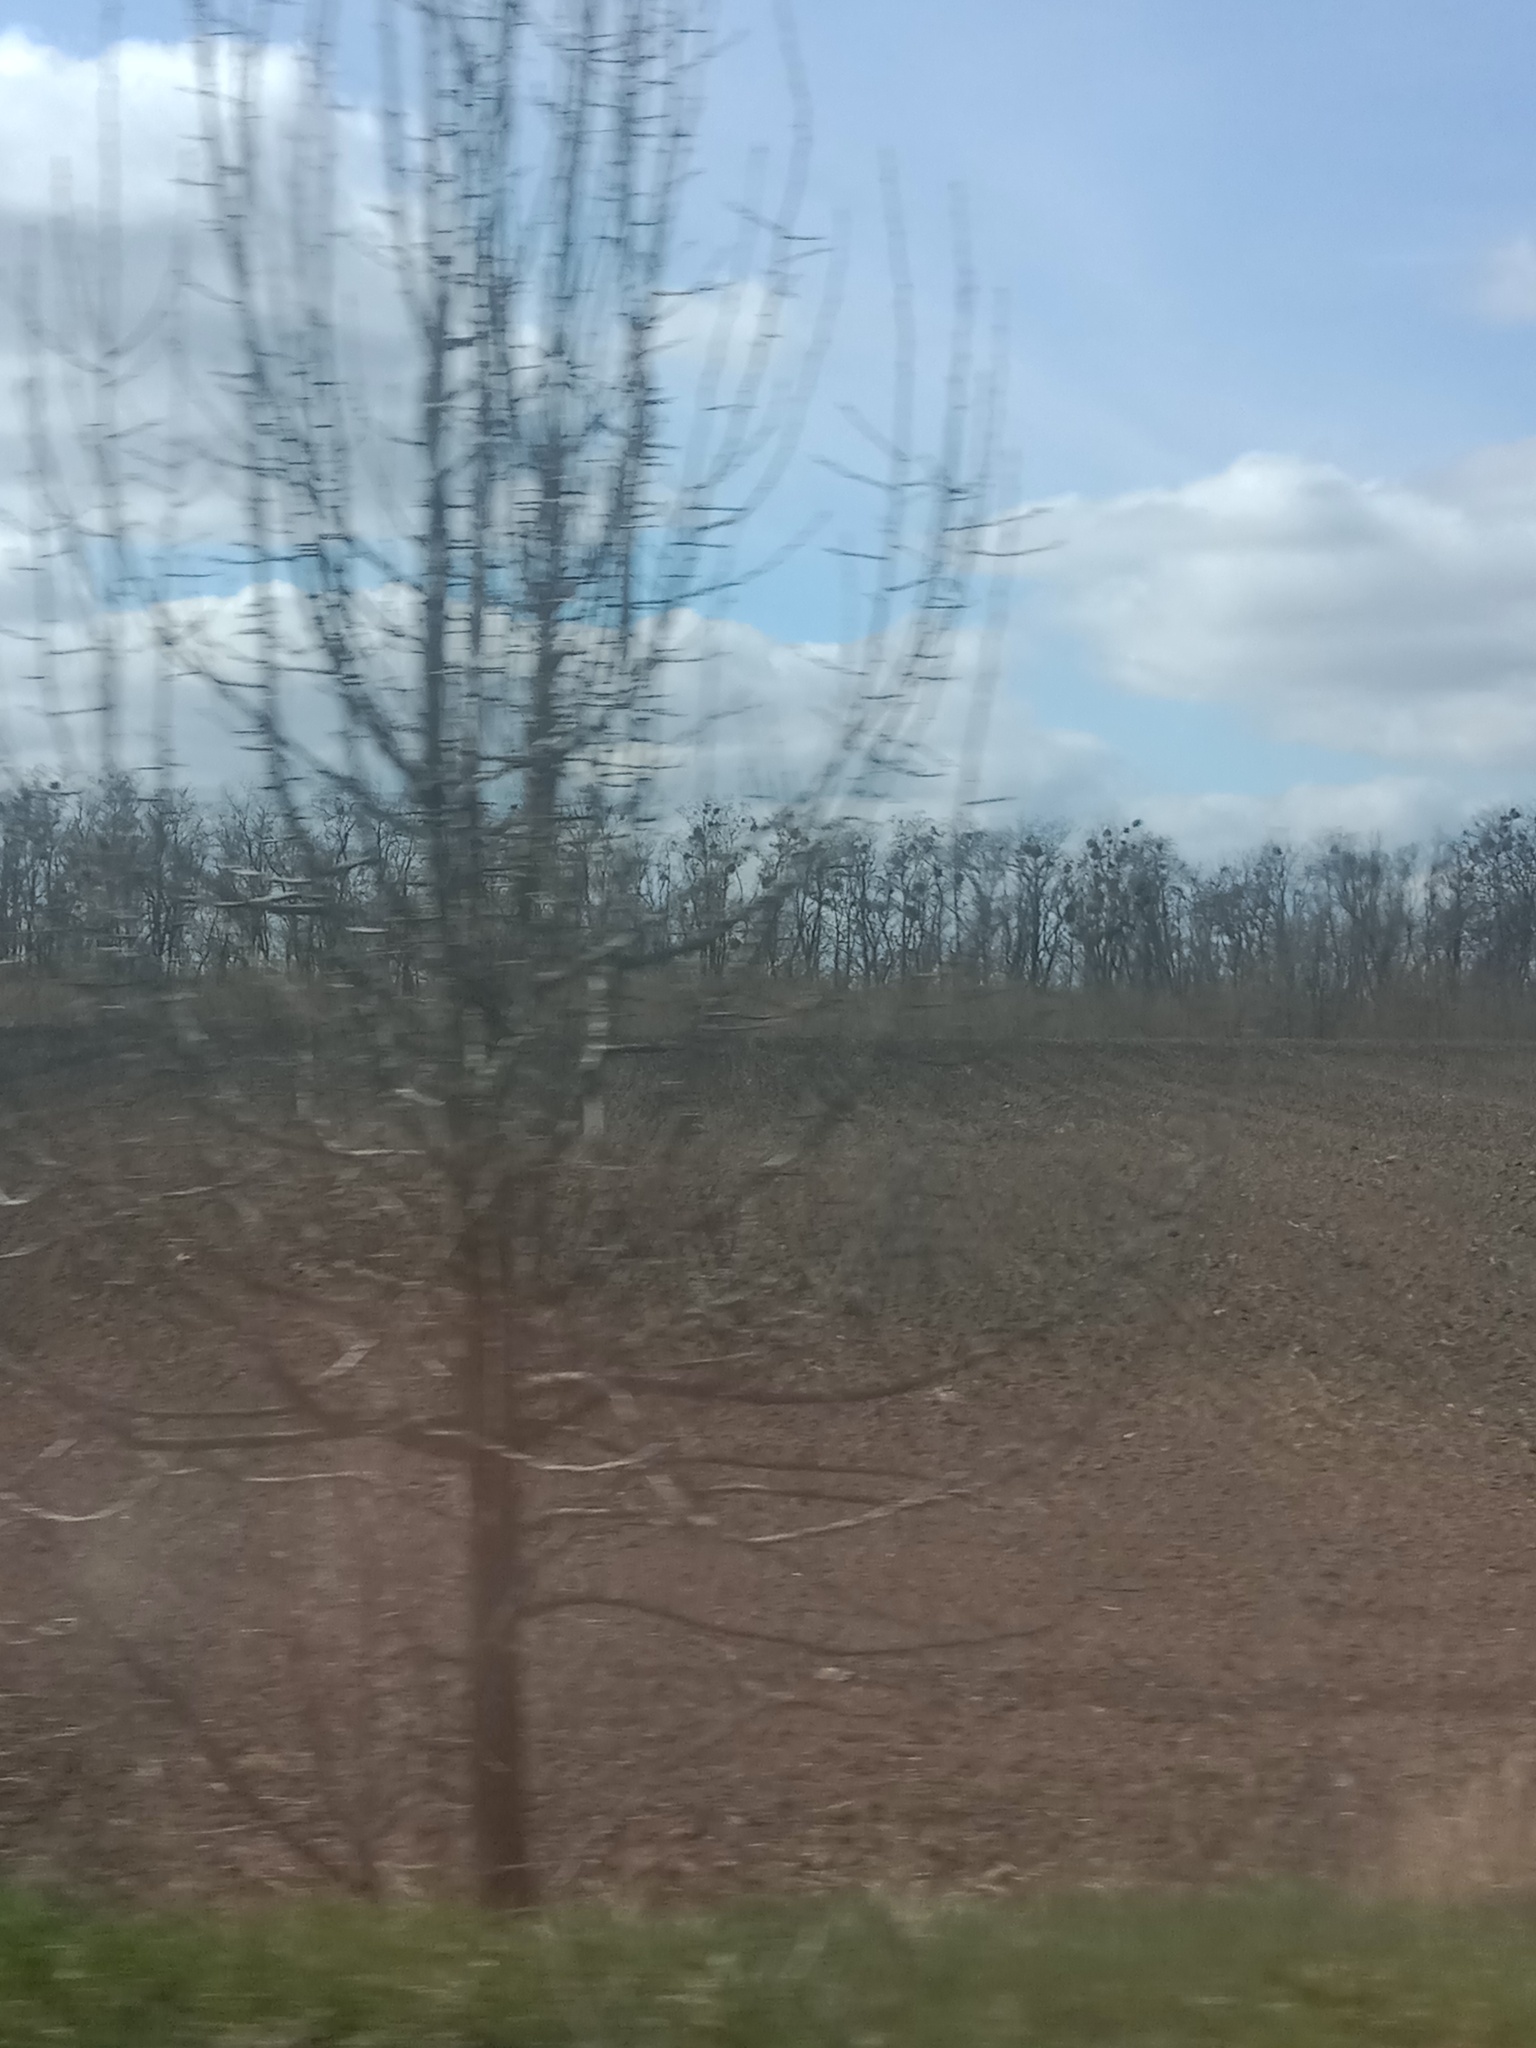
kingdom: Plantae
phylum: Tracheophyta
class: Magnoliopsida
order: Santalales
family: Viscaceae
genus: Viscum
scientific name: Viscum album
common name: Mistletoe
